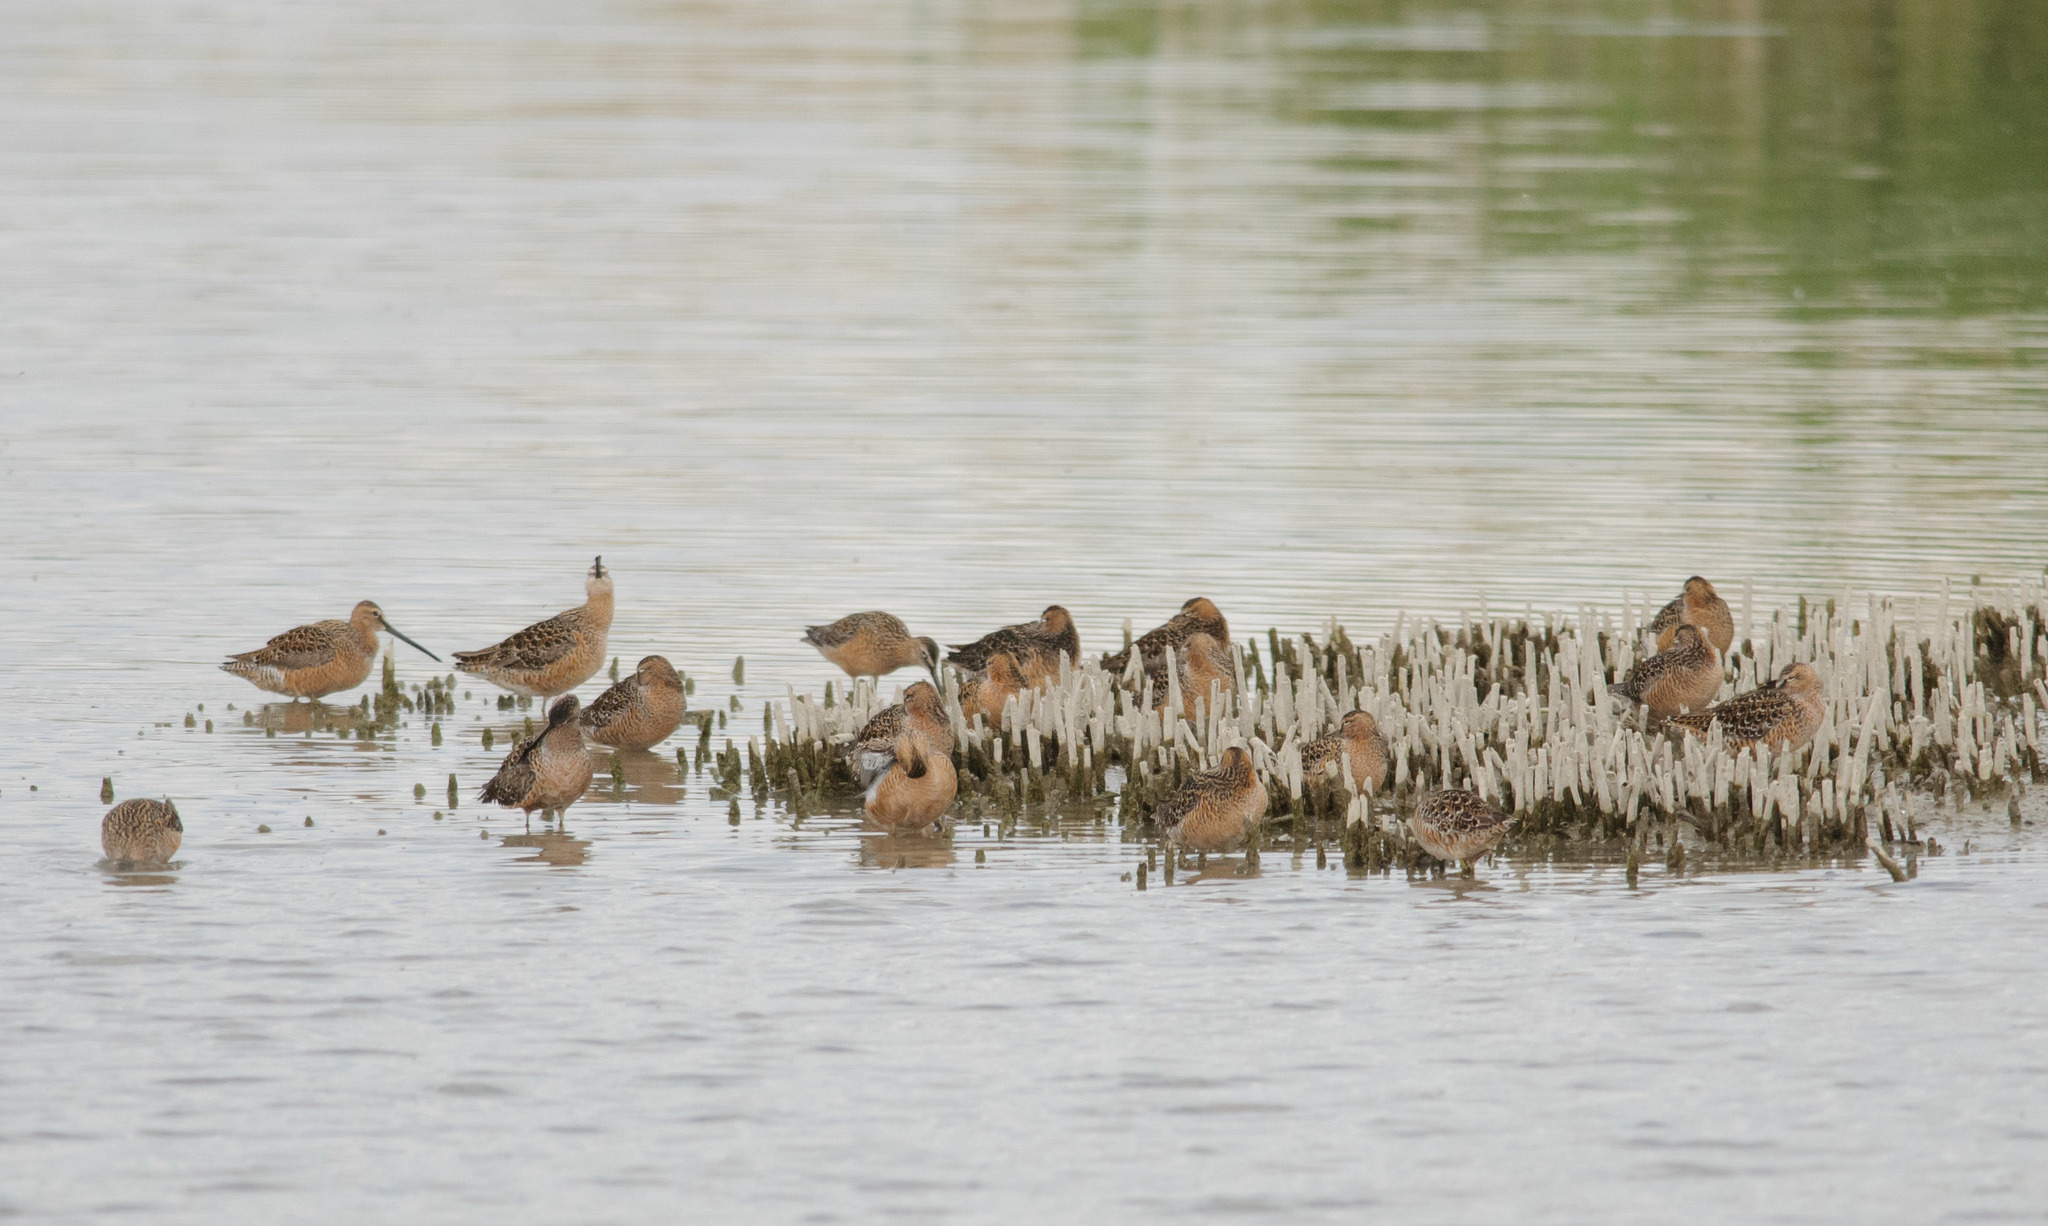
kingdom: Animalia
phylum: Chordata
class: Aves
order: Charadriiformes
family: Scolopacidae
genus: Limnodromus
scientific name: Limnodromus scolopaceus
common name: Long-billed dowitcher
